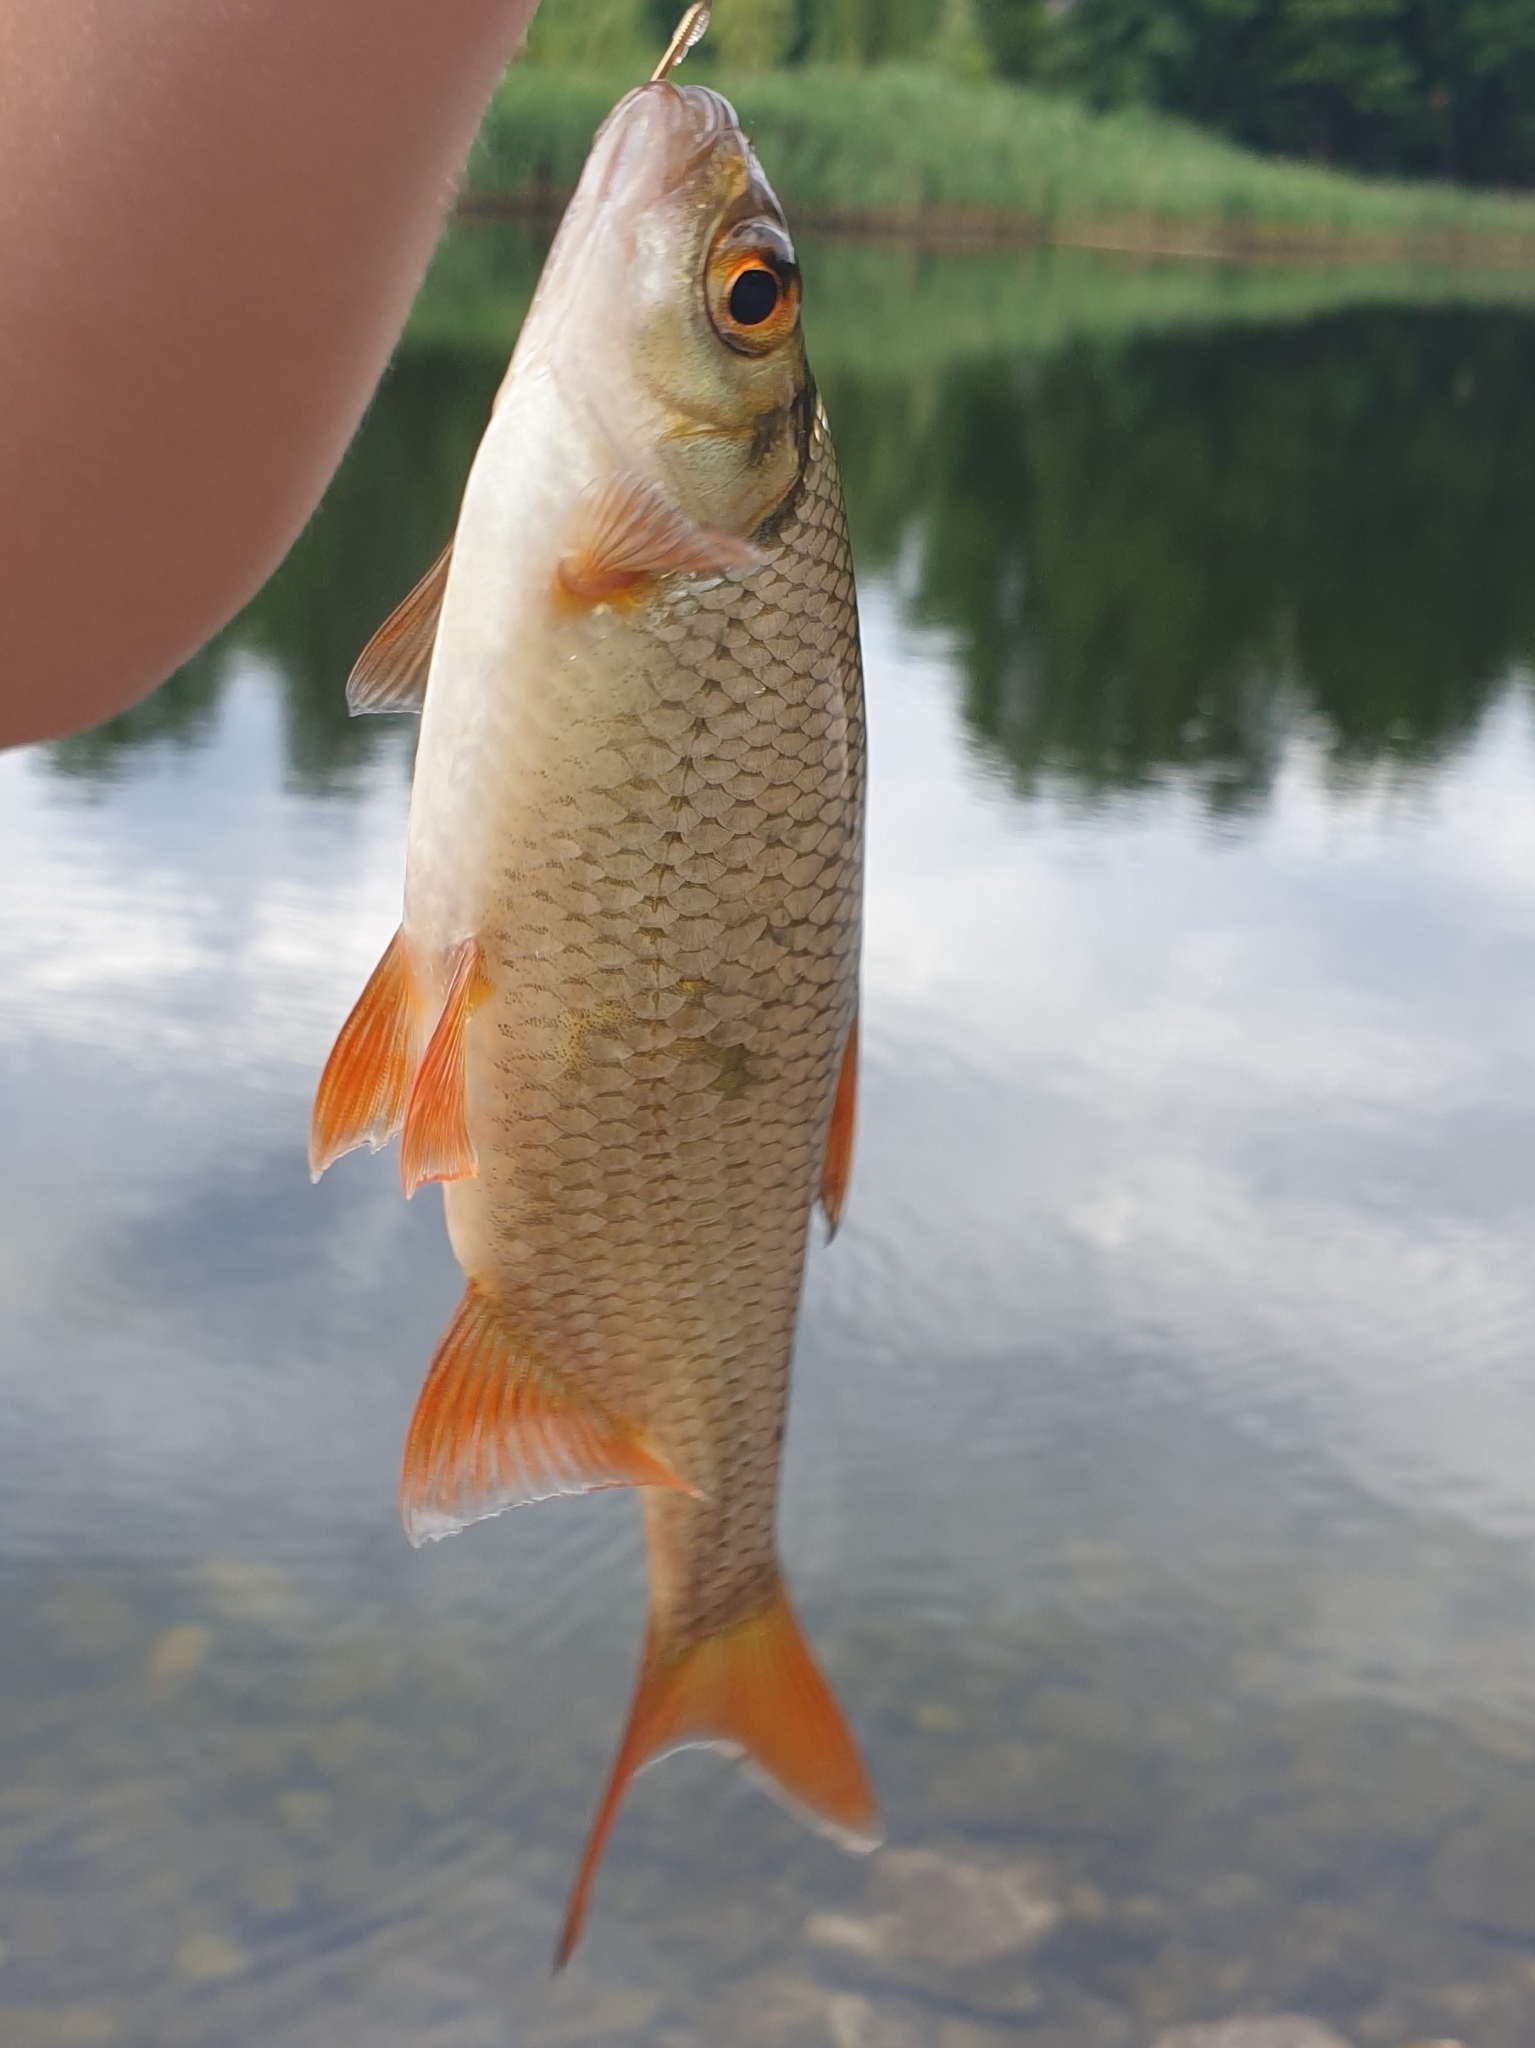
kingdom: Animalia
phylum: Chordata
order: Cypriniformes
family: Cyprinidae
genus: Rutilus
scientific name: Rutilus rutilus
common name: Roach
